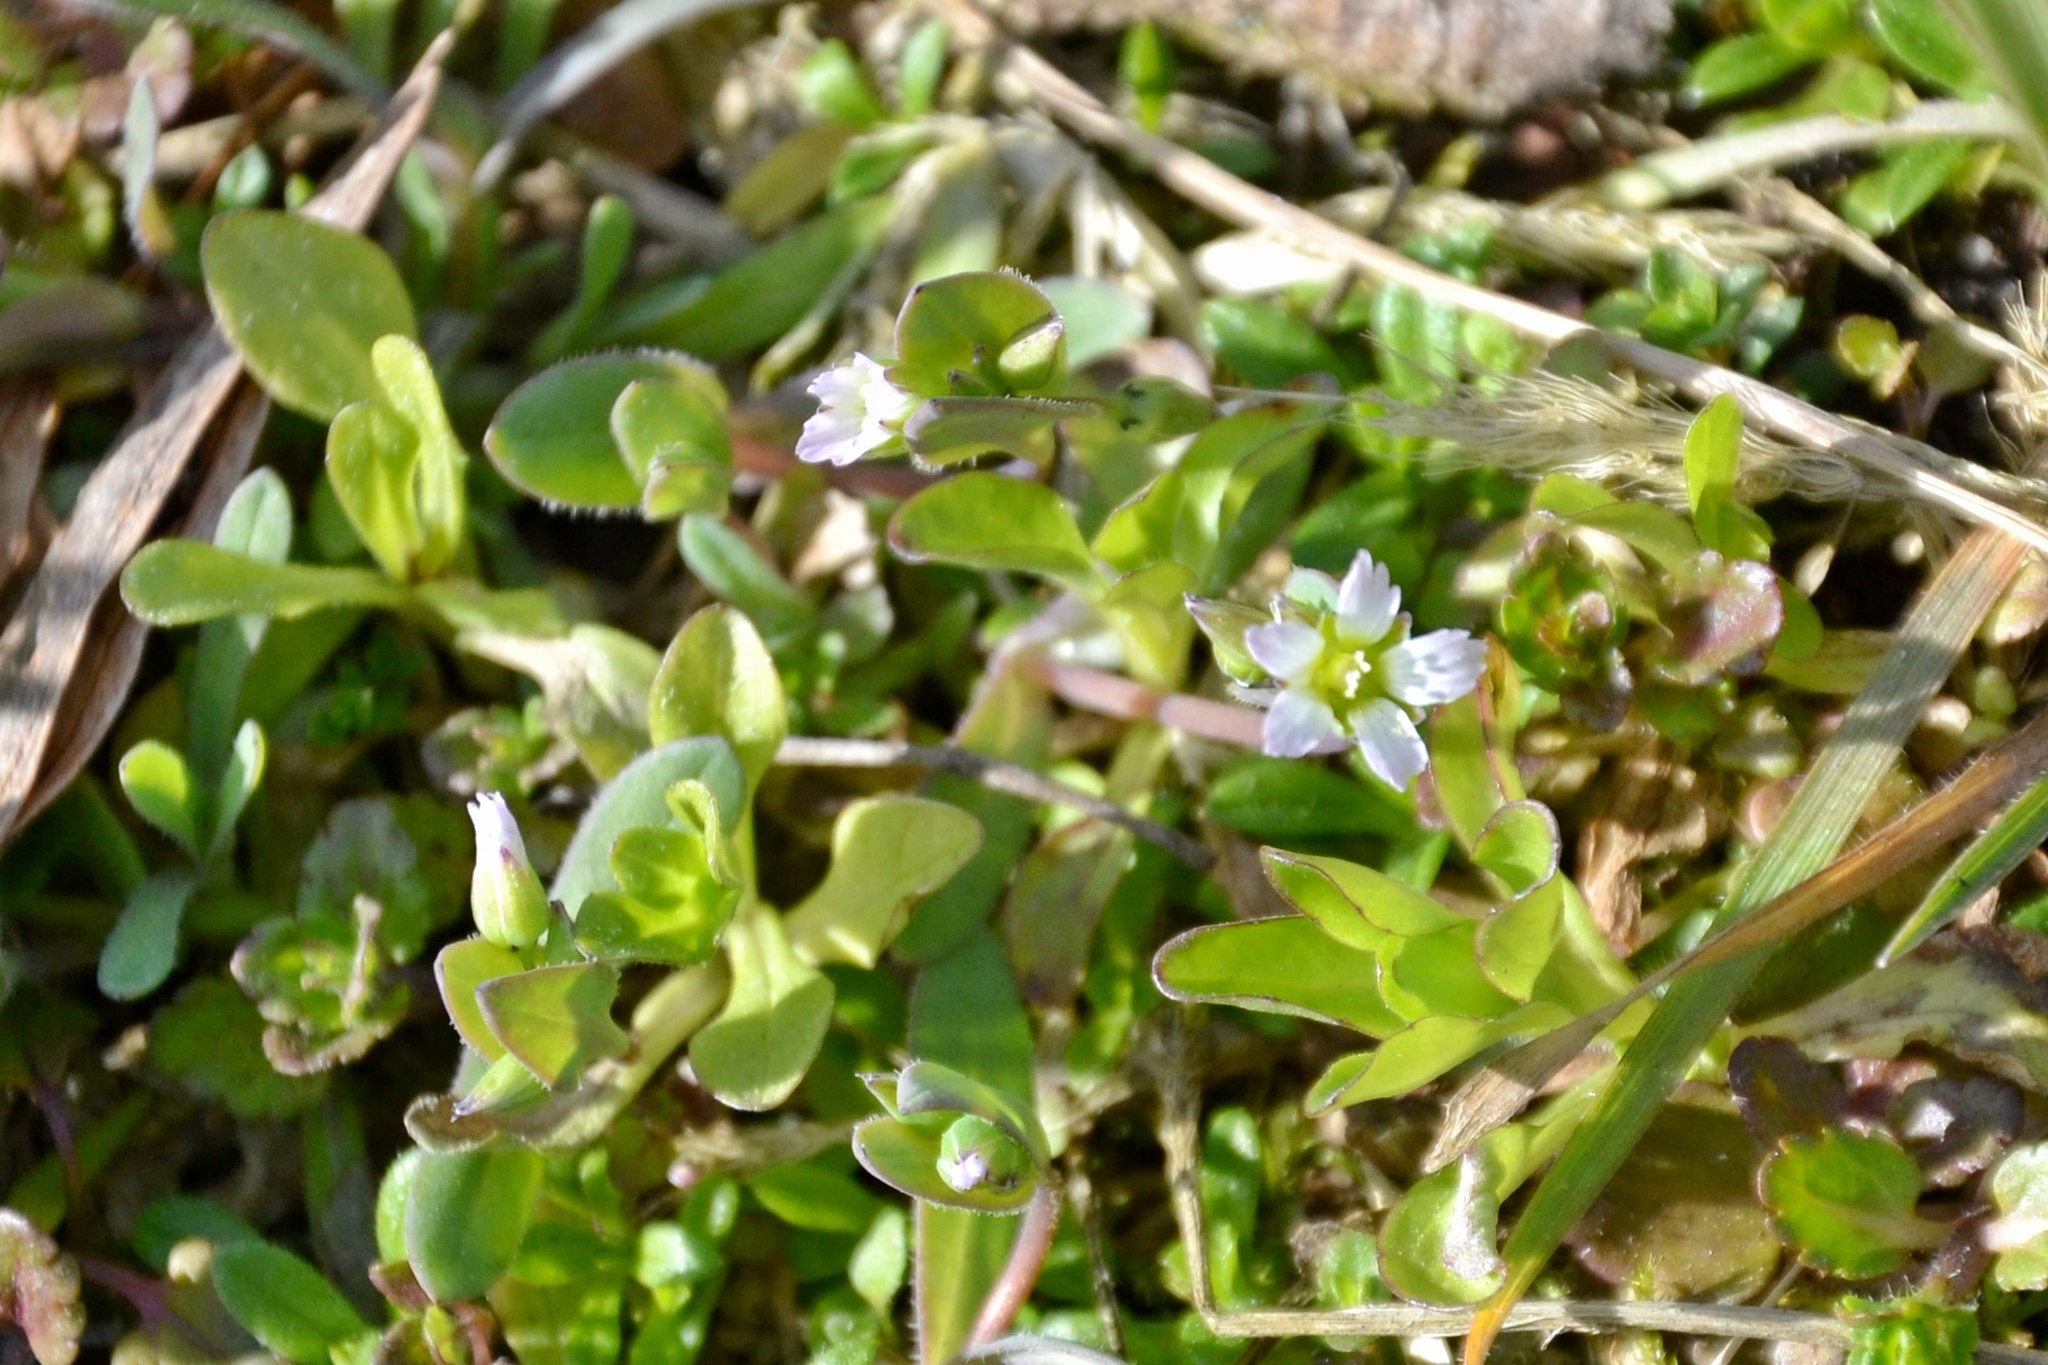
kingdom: Plantae
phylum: Tracheophyta
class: Magnoliopsida
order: Caryophyllales
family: Caryophyllaceae
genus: Holosteum
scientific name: Holosteum umbellatum
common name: Jagged chickweed
